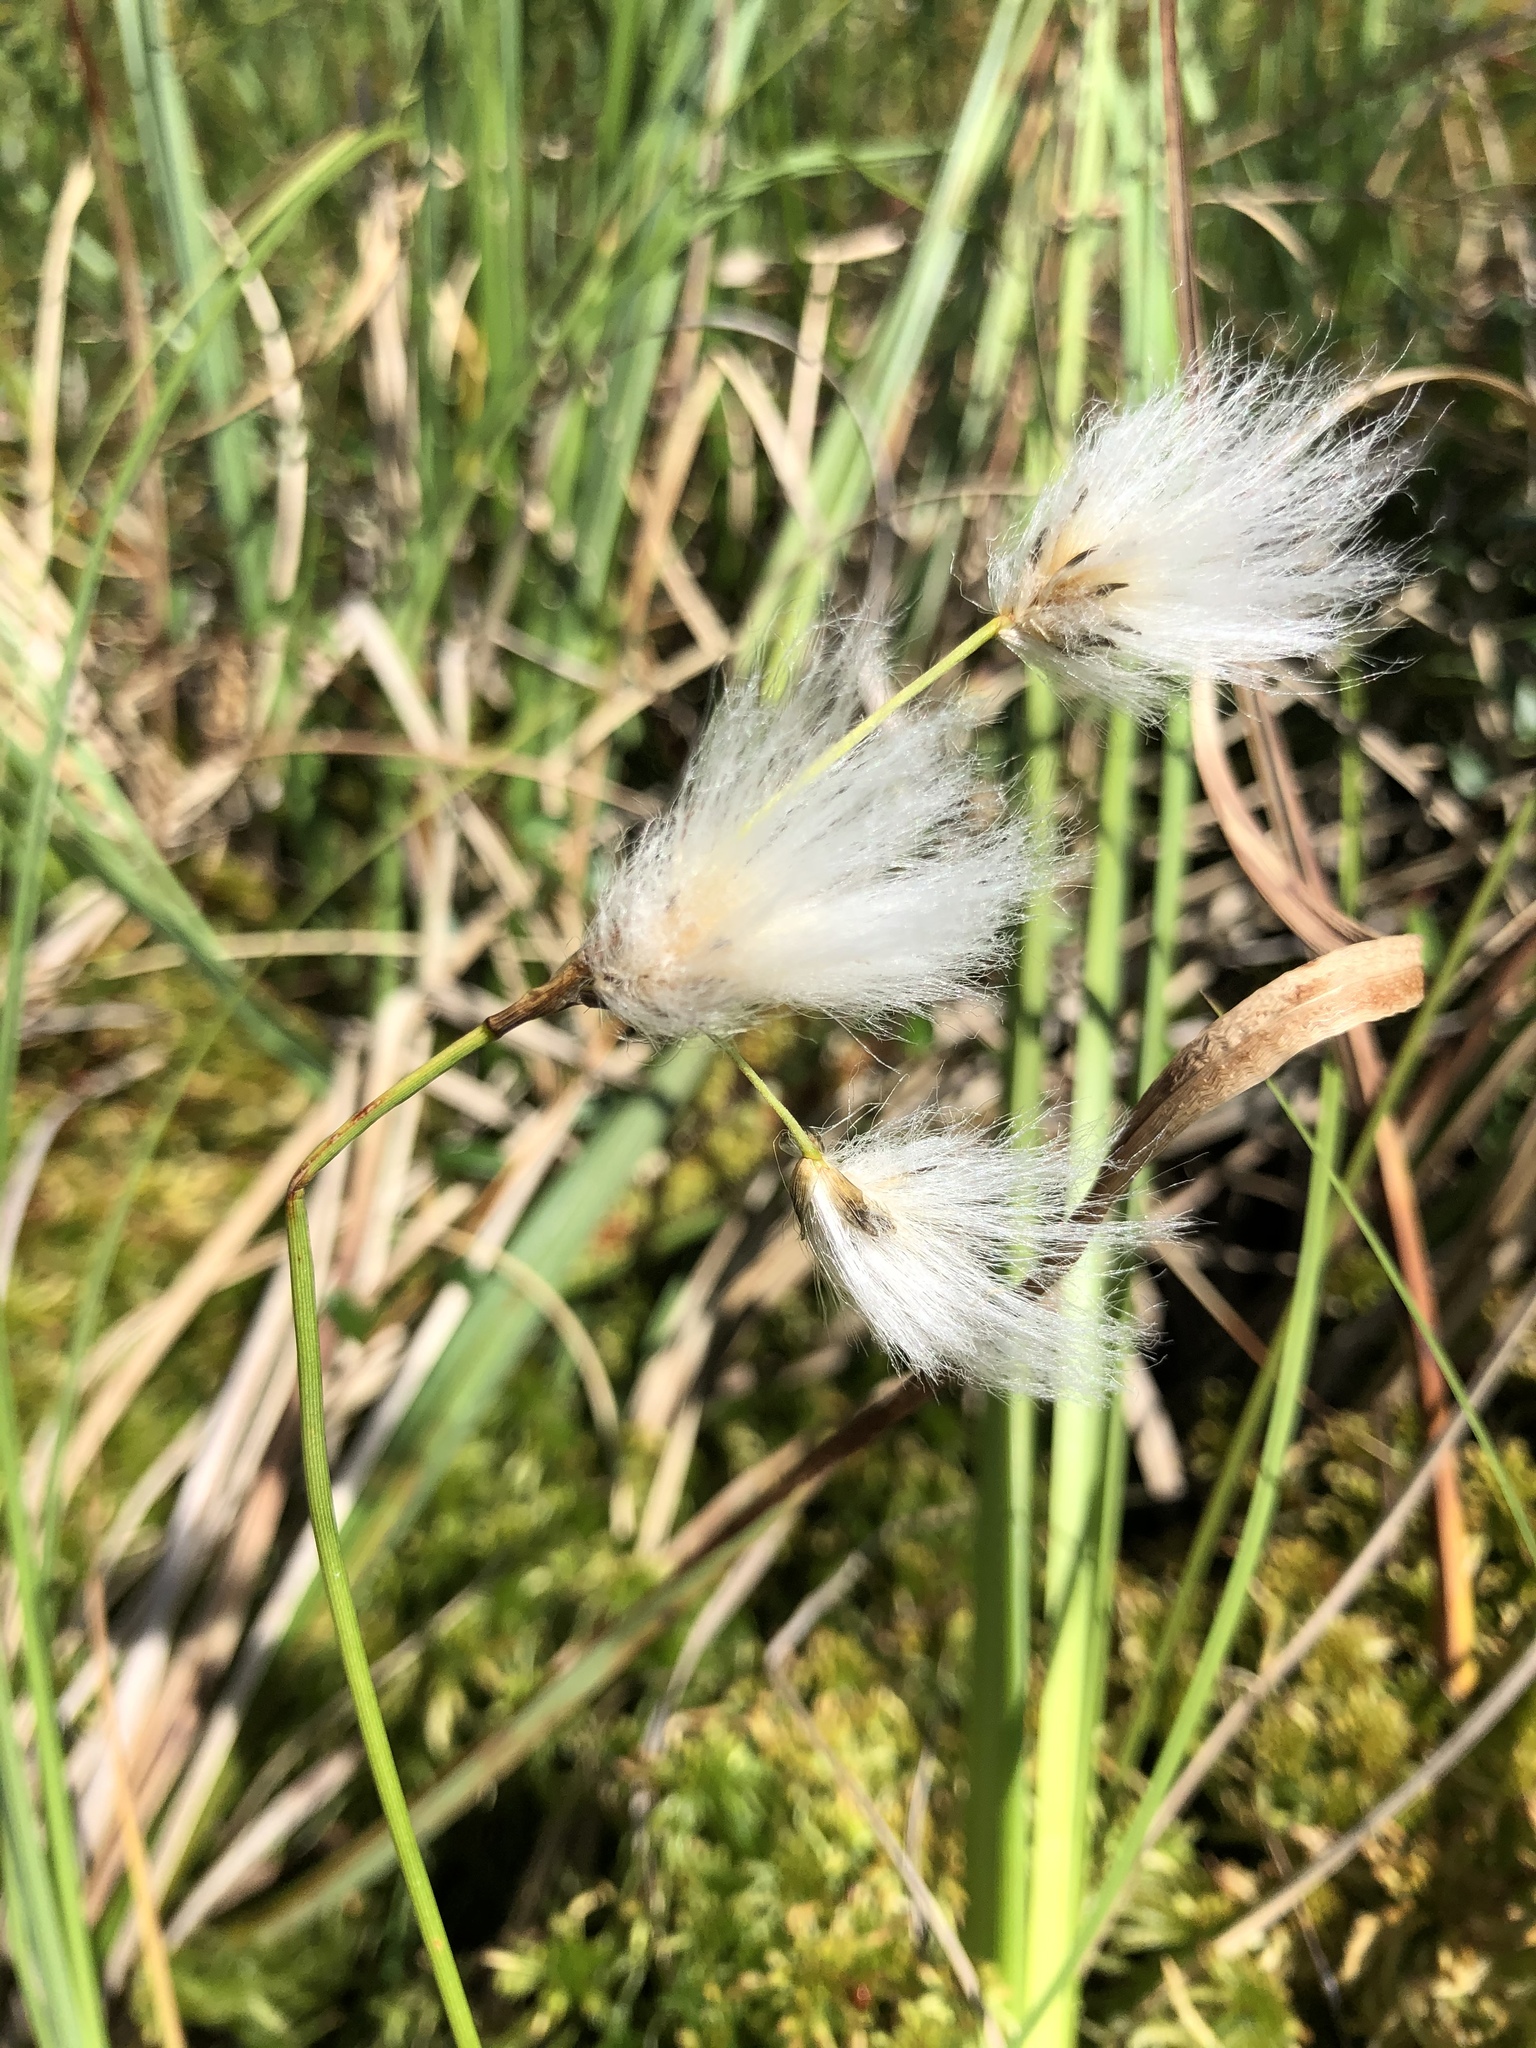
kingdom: Plantae
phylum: Tracheophyta
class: Liliopsida
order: Poales
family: Cyperaceae
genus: Eriophorum
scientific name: Eriophorum gracile
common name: Slender cottongrass
